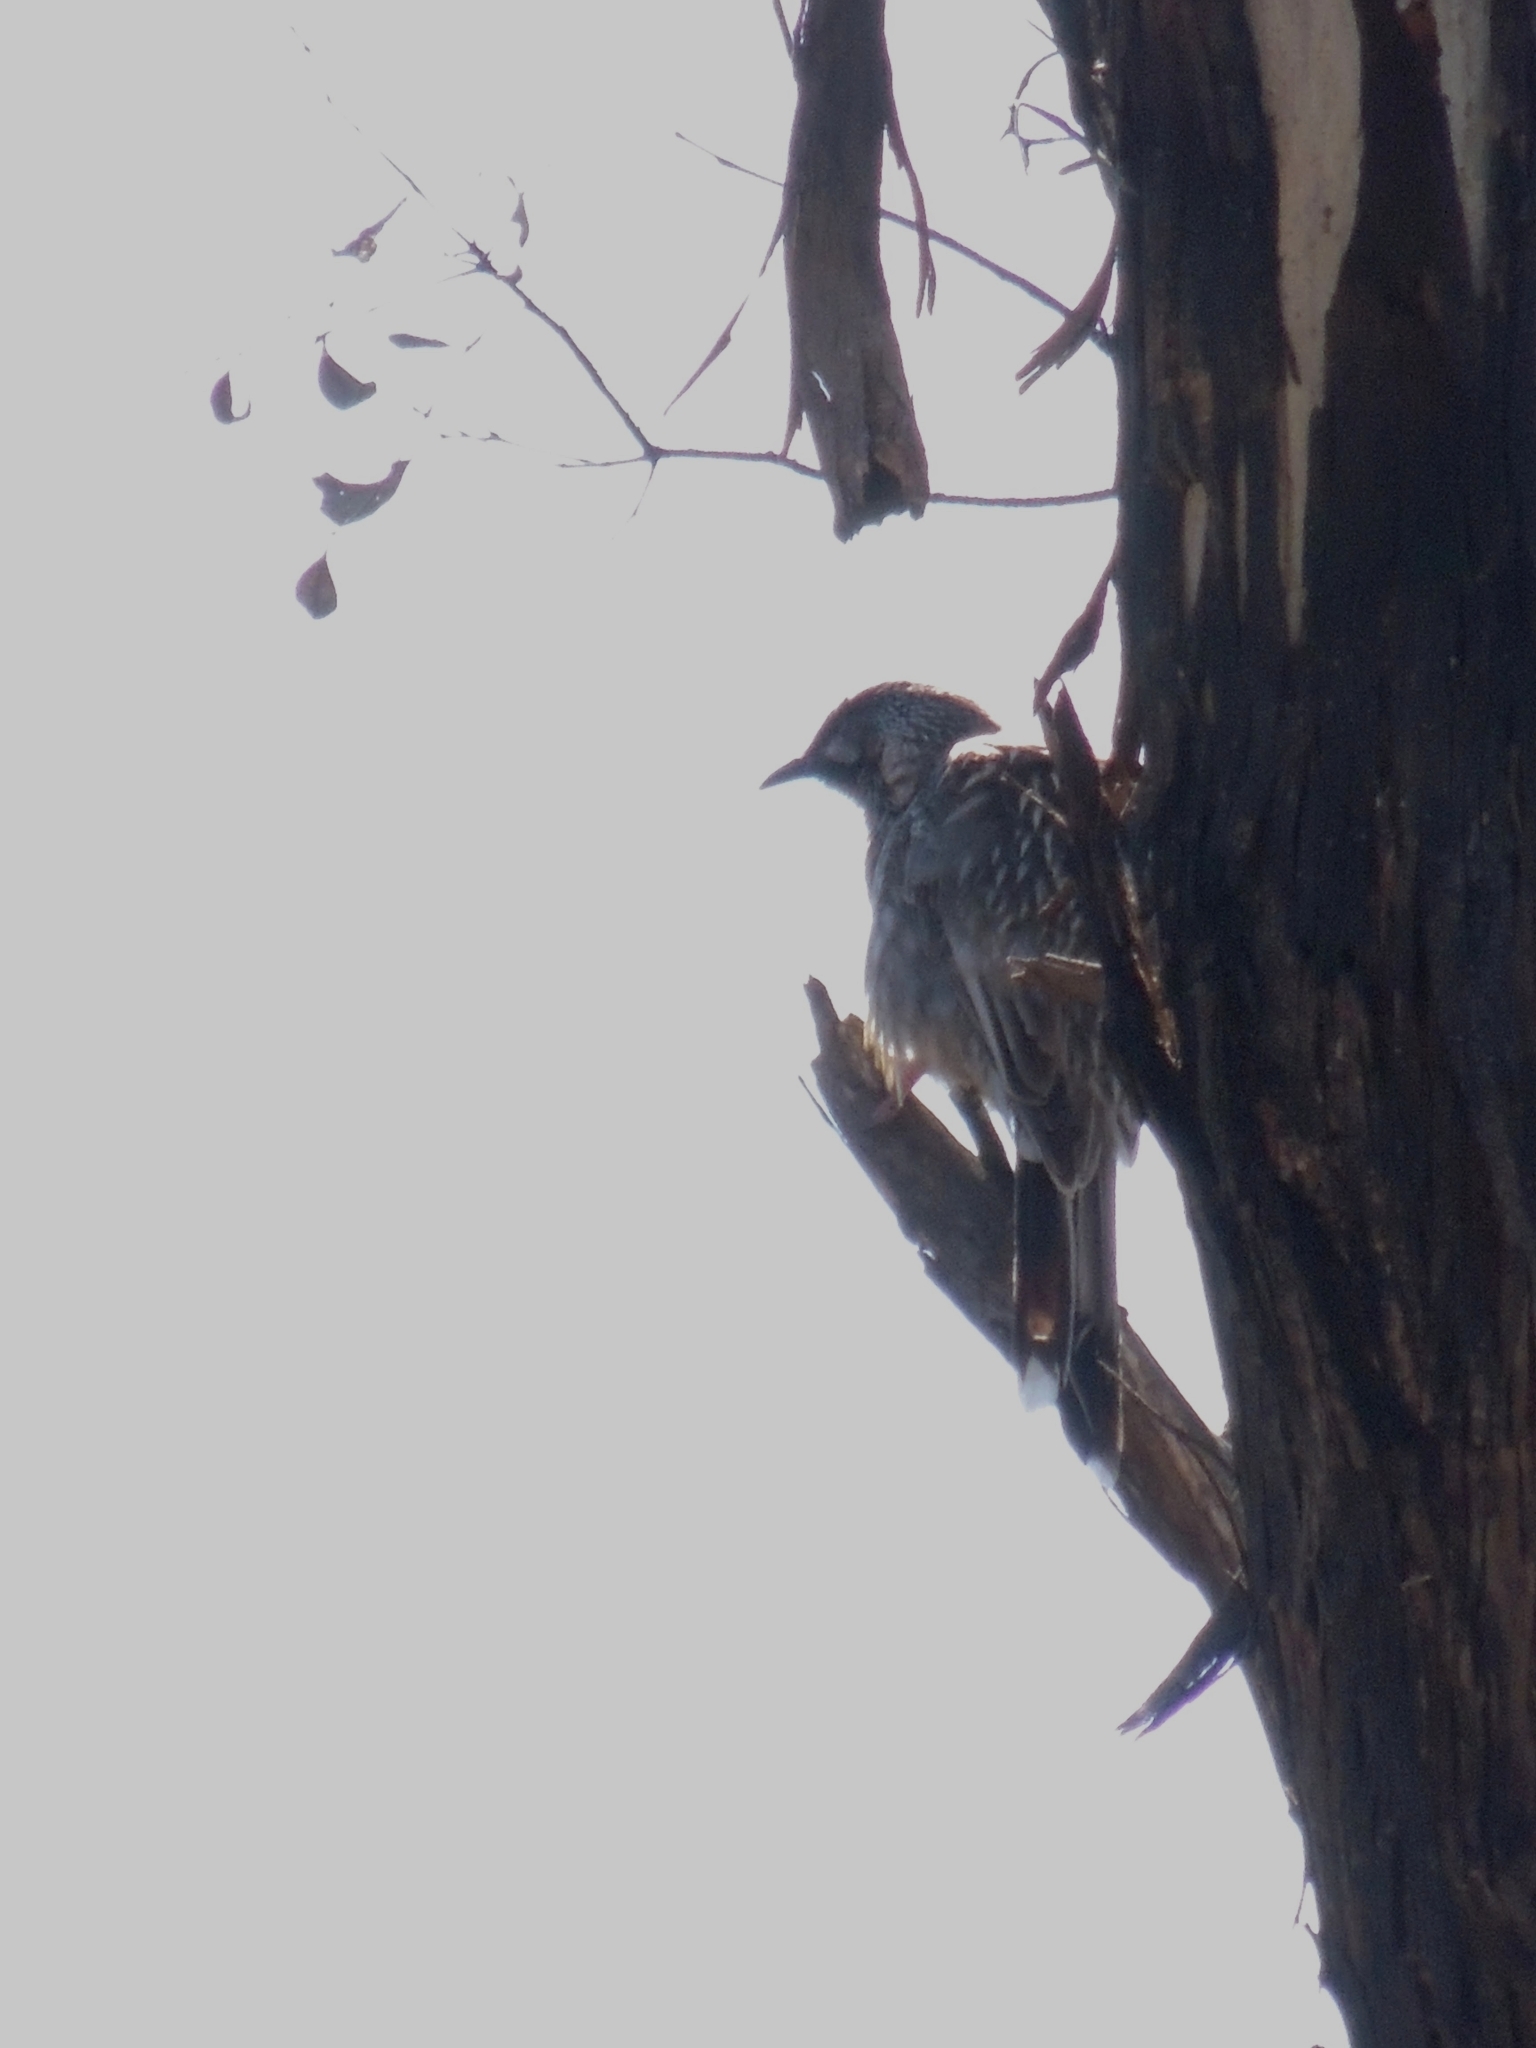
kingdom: Animalia
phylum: Chordata
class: Aves
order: Passeriformes
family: Meliphagidae
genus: Anthochaera
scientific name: Anthochaera carunculata
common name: Red wattlebird
